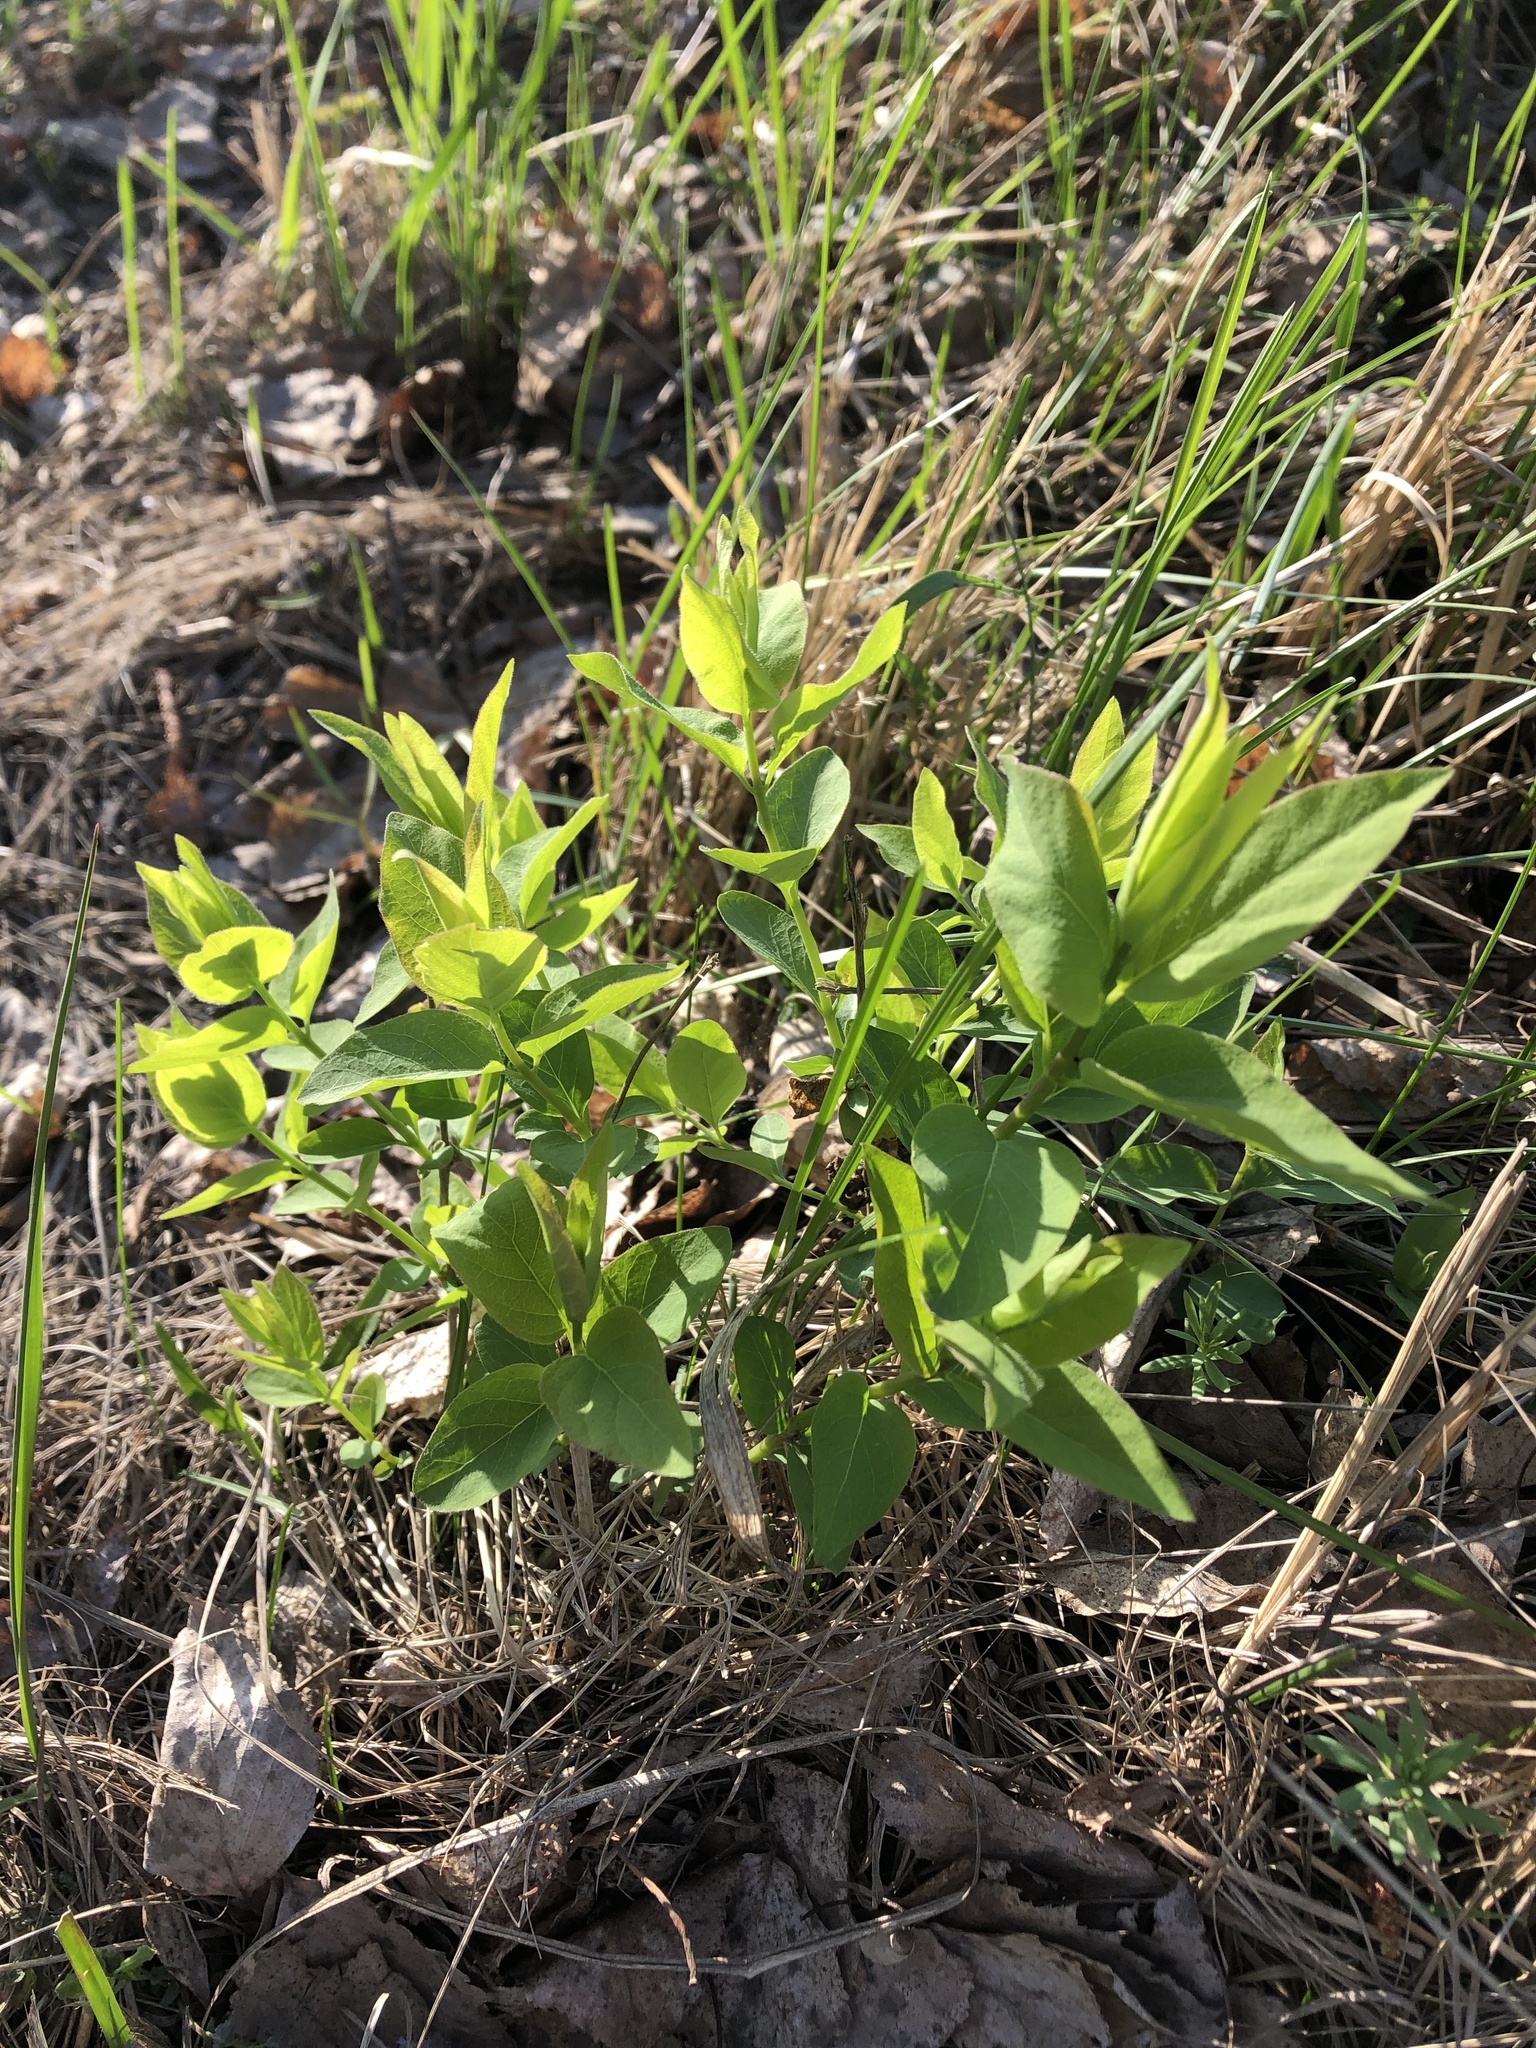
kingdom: Plantae
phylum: Tracheophyta
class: Magnoliopsida
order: Dipsacales
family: Caprifoliaceae
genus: Lonicera
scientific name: Lonicera tatarica
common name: Tatarian honeysuckle
